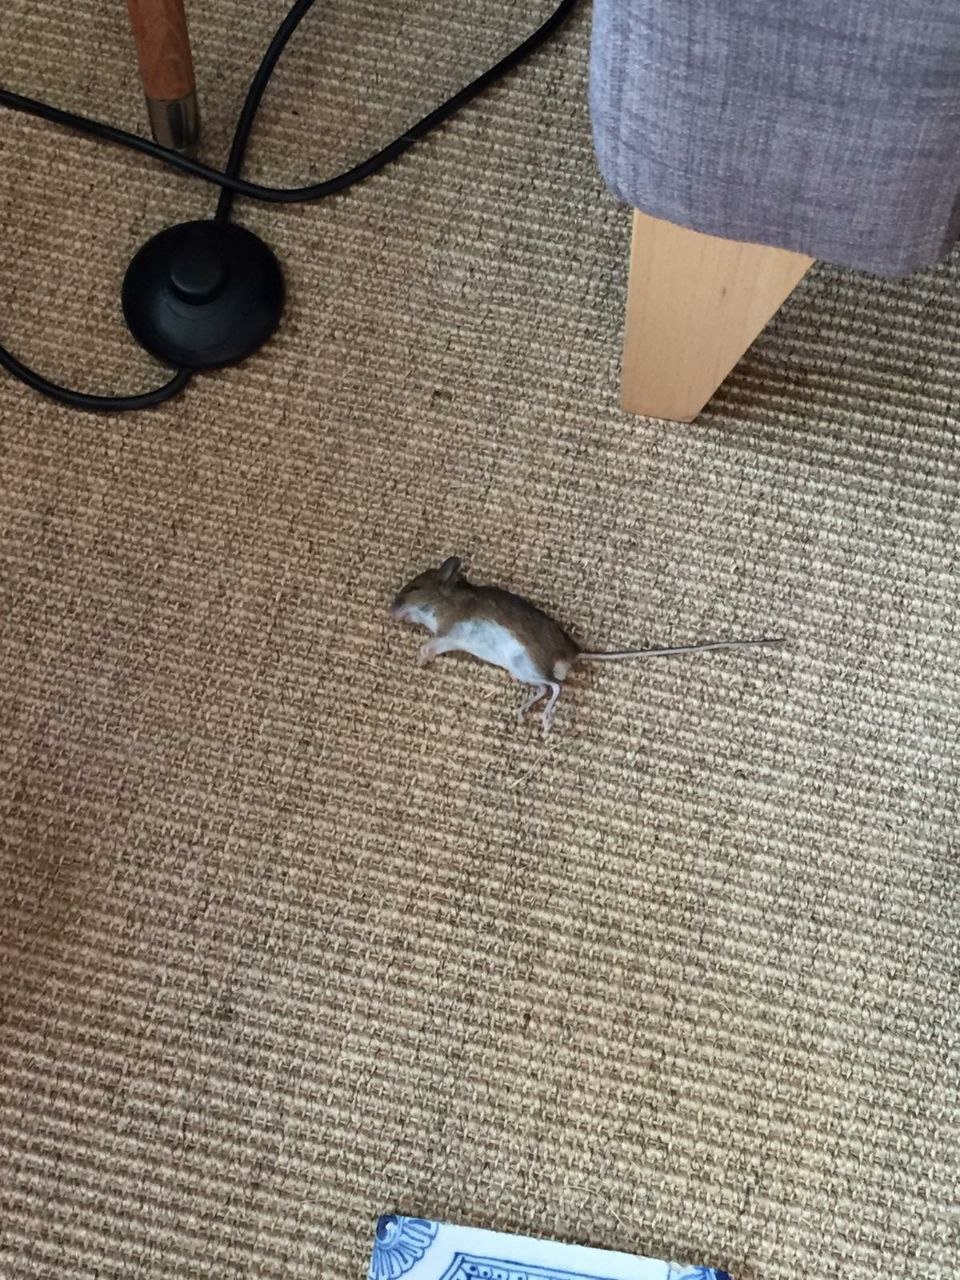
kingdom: Animalia
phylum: Chordata
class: Mammalia
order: Rodentia
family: Muridae
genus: Apodemus
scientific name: Apodemus sylvaticus
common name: Wood mouse
